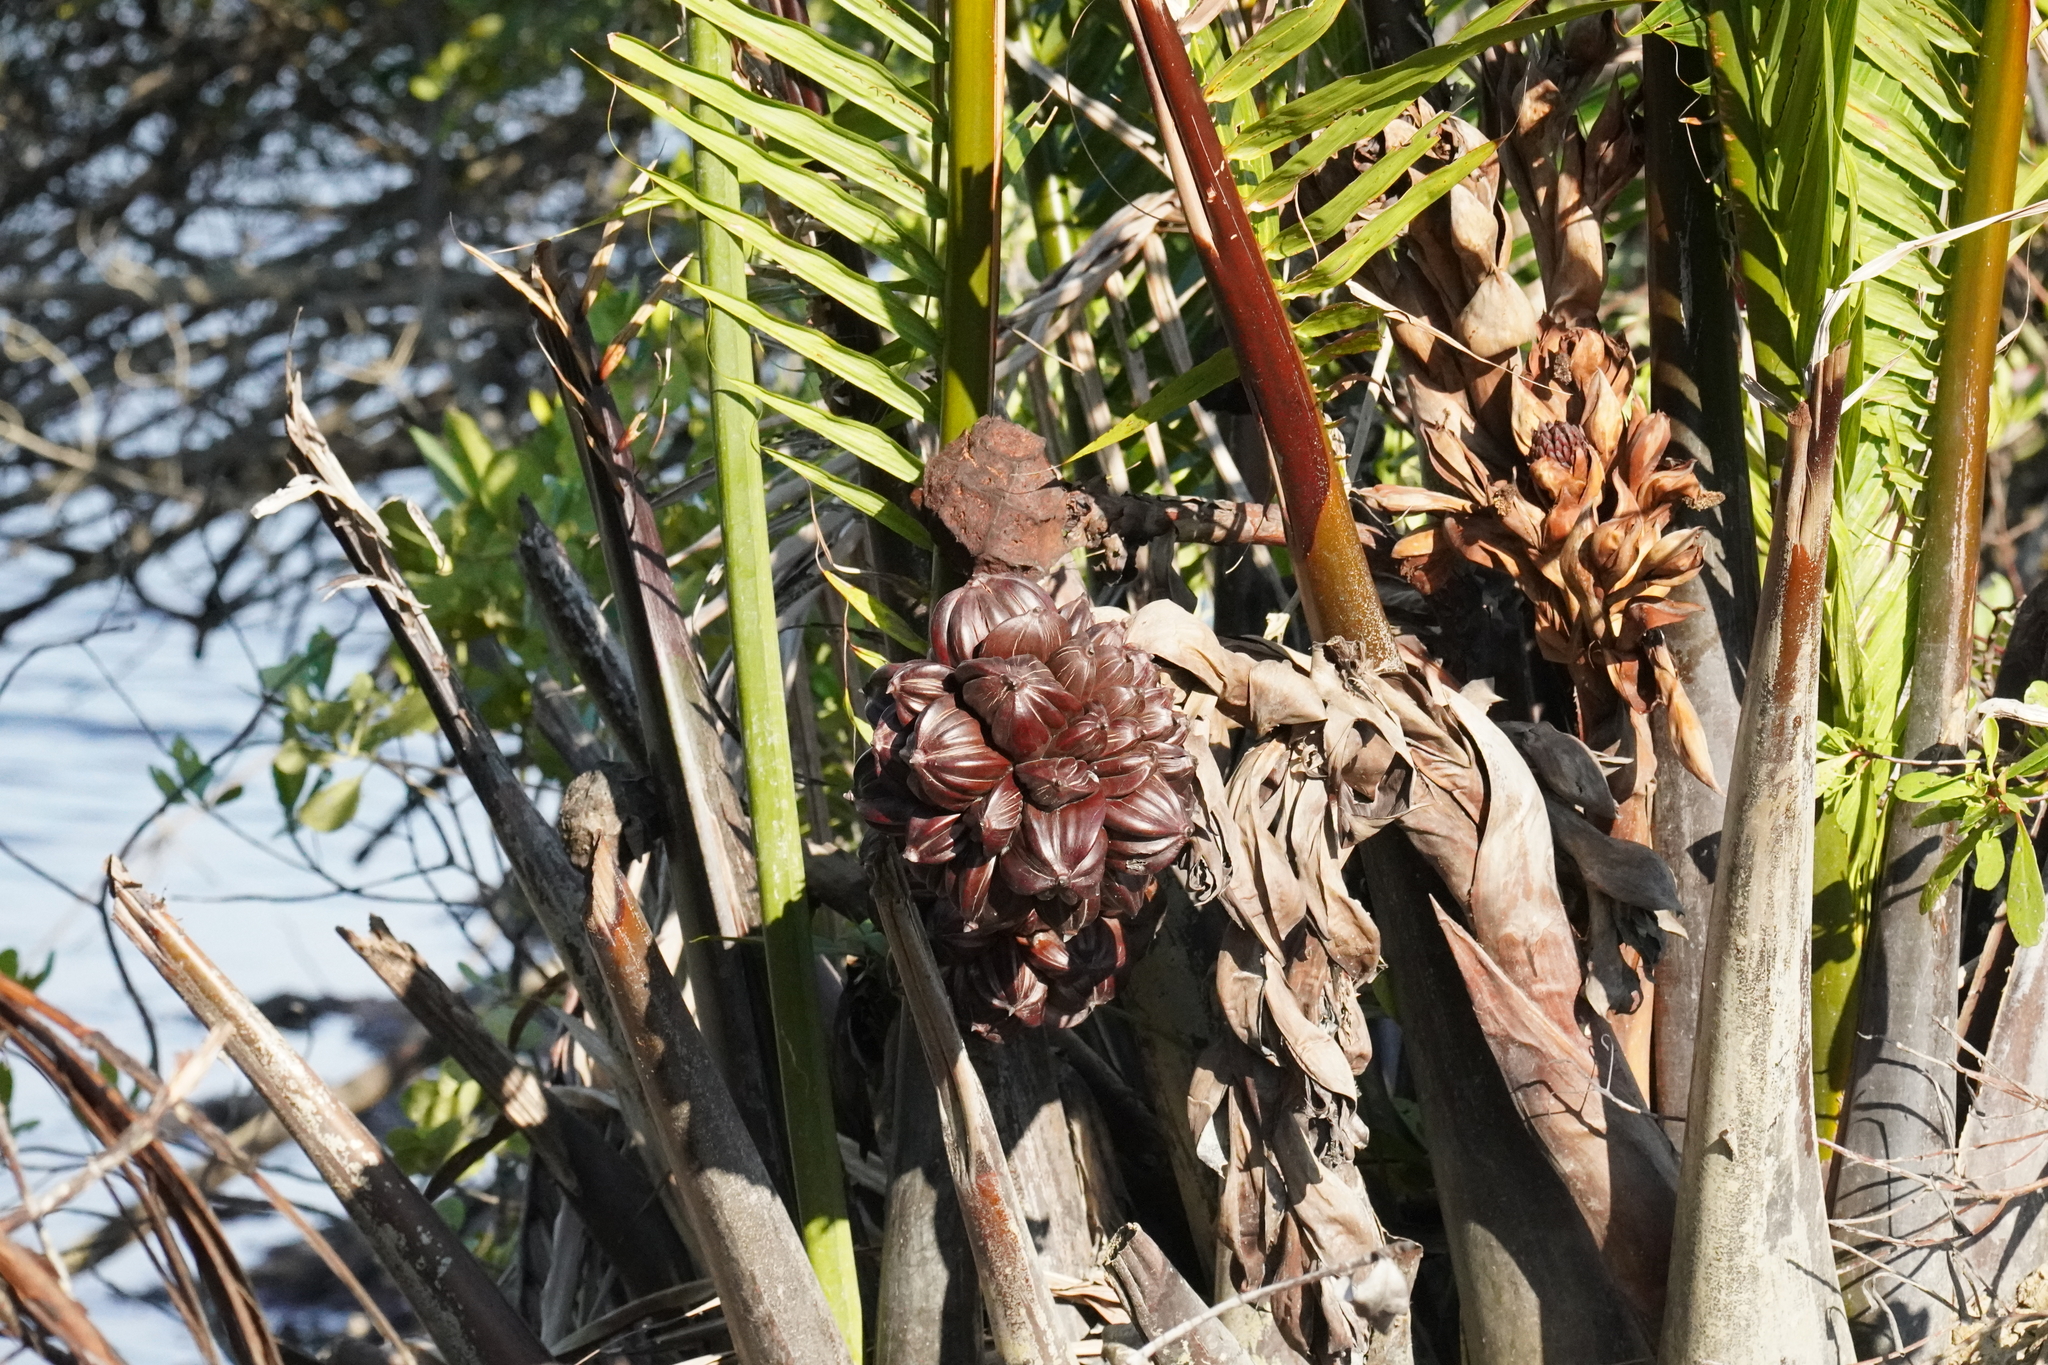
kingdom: Plantae
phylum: Tracheophyta
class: Liliopsida
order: Arecales
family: Arecaceae
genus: Nypa
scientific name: Nypa fruticans
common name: Mangrove palm
